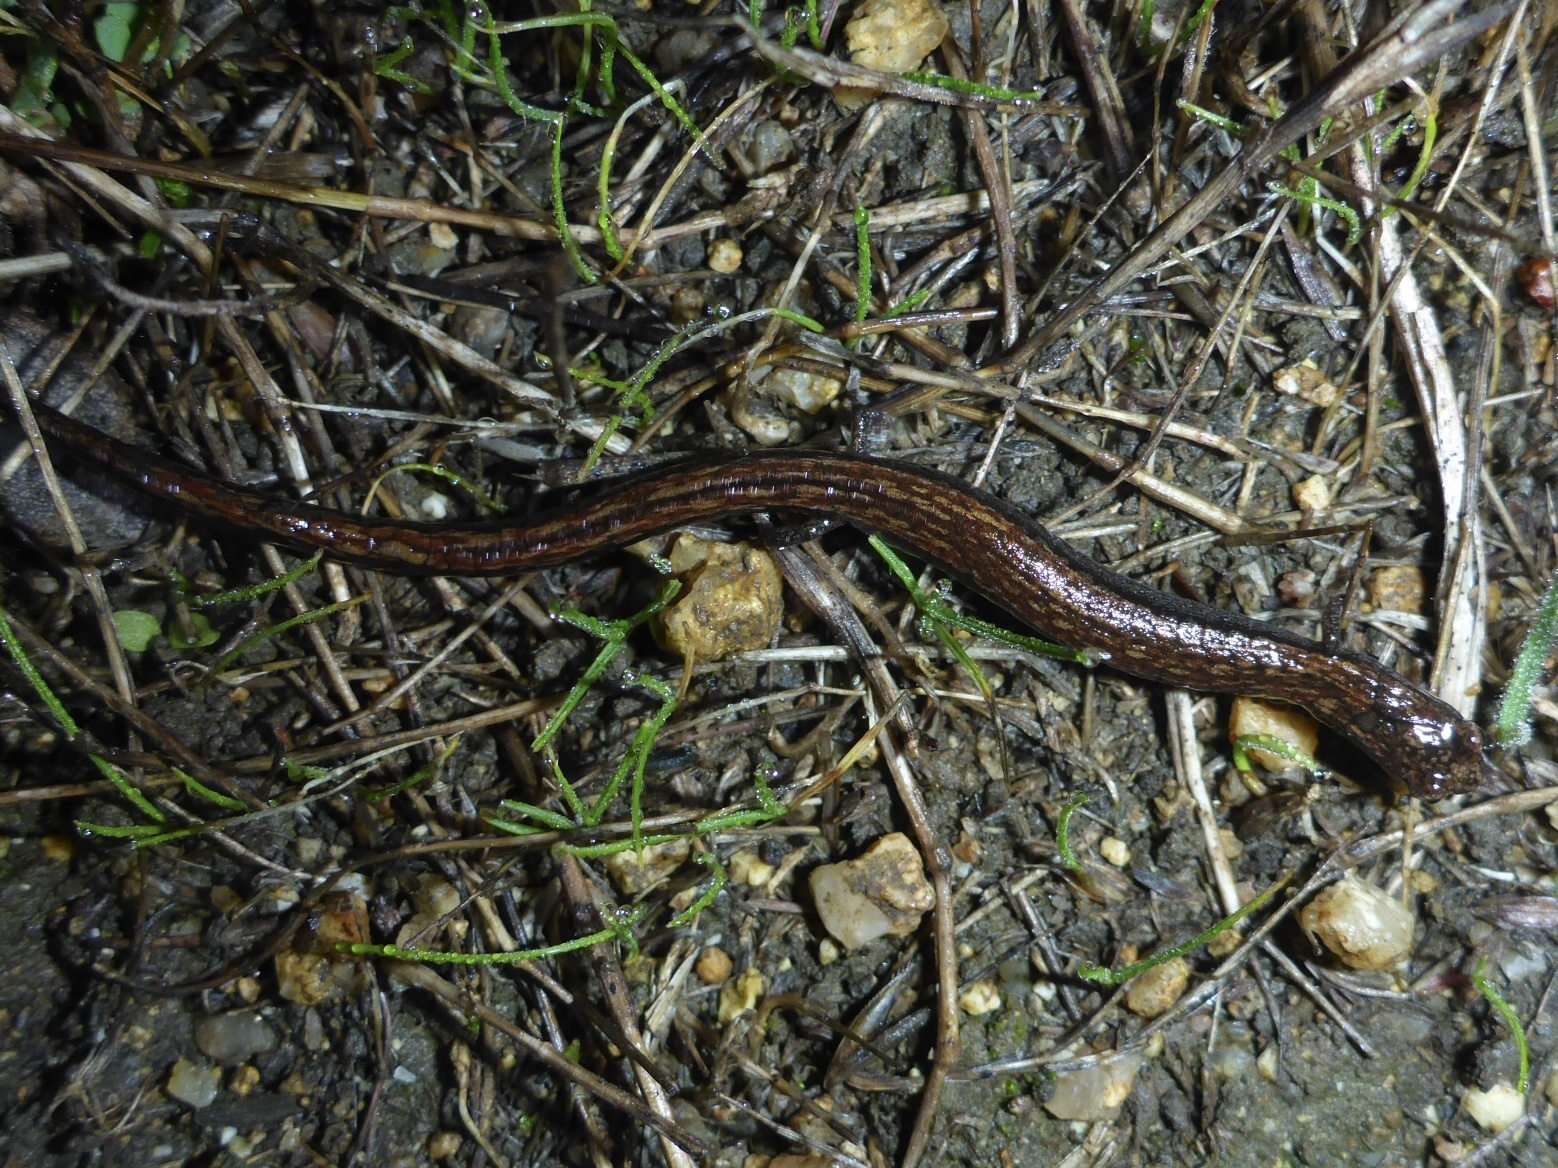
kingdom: Animalia
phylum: Chordata
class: Amphibia
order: Caudata
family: Plethodontidae
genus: Batrachoseps
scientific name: Batrachoseps attenuatus
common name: California slender salamander
